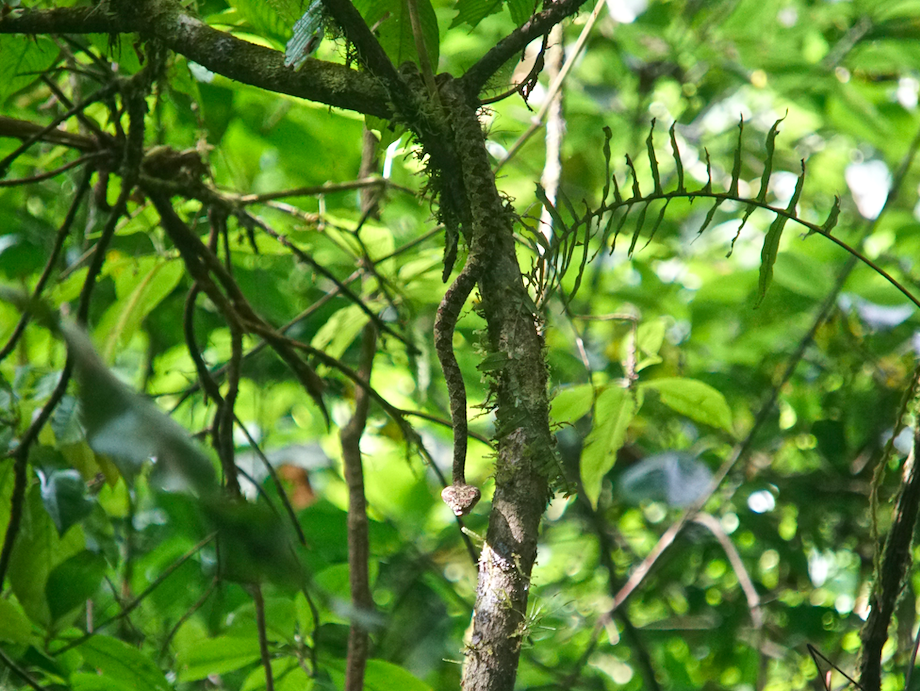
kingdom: Animalia
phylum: Chordata
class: Squamata
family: Viperidae
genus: Bothriechis
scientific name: Bothriechis schlegelii
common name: Eyelash viper
